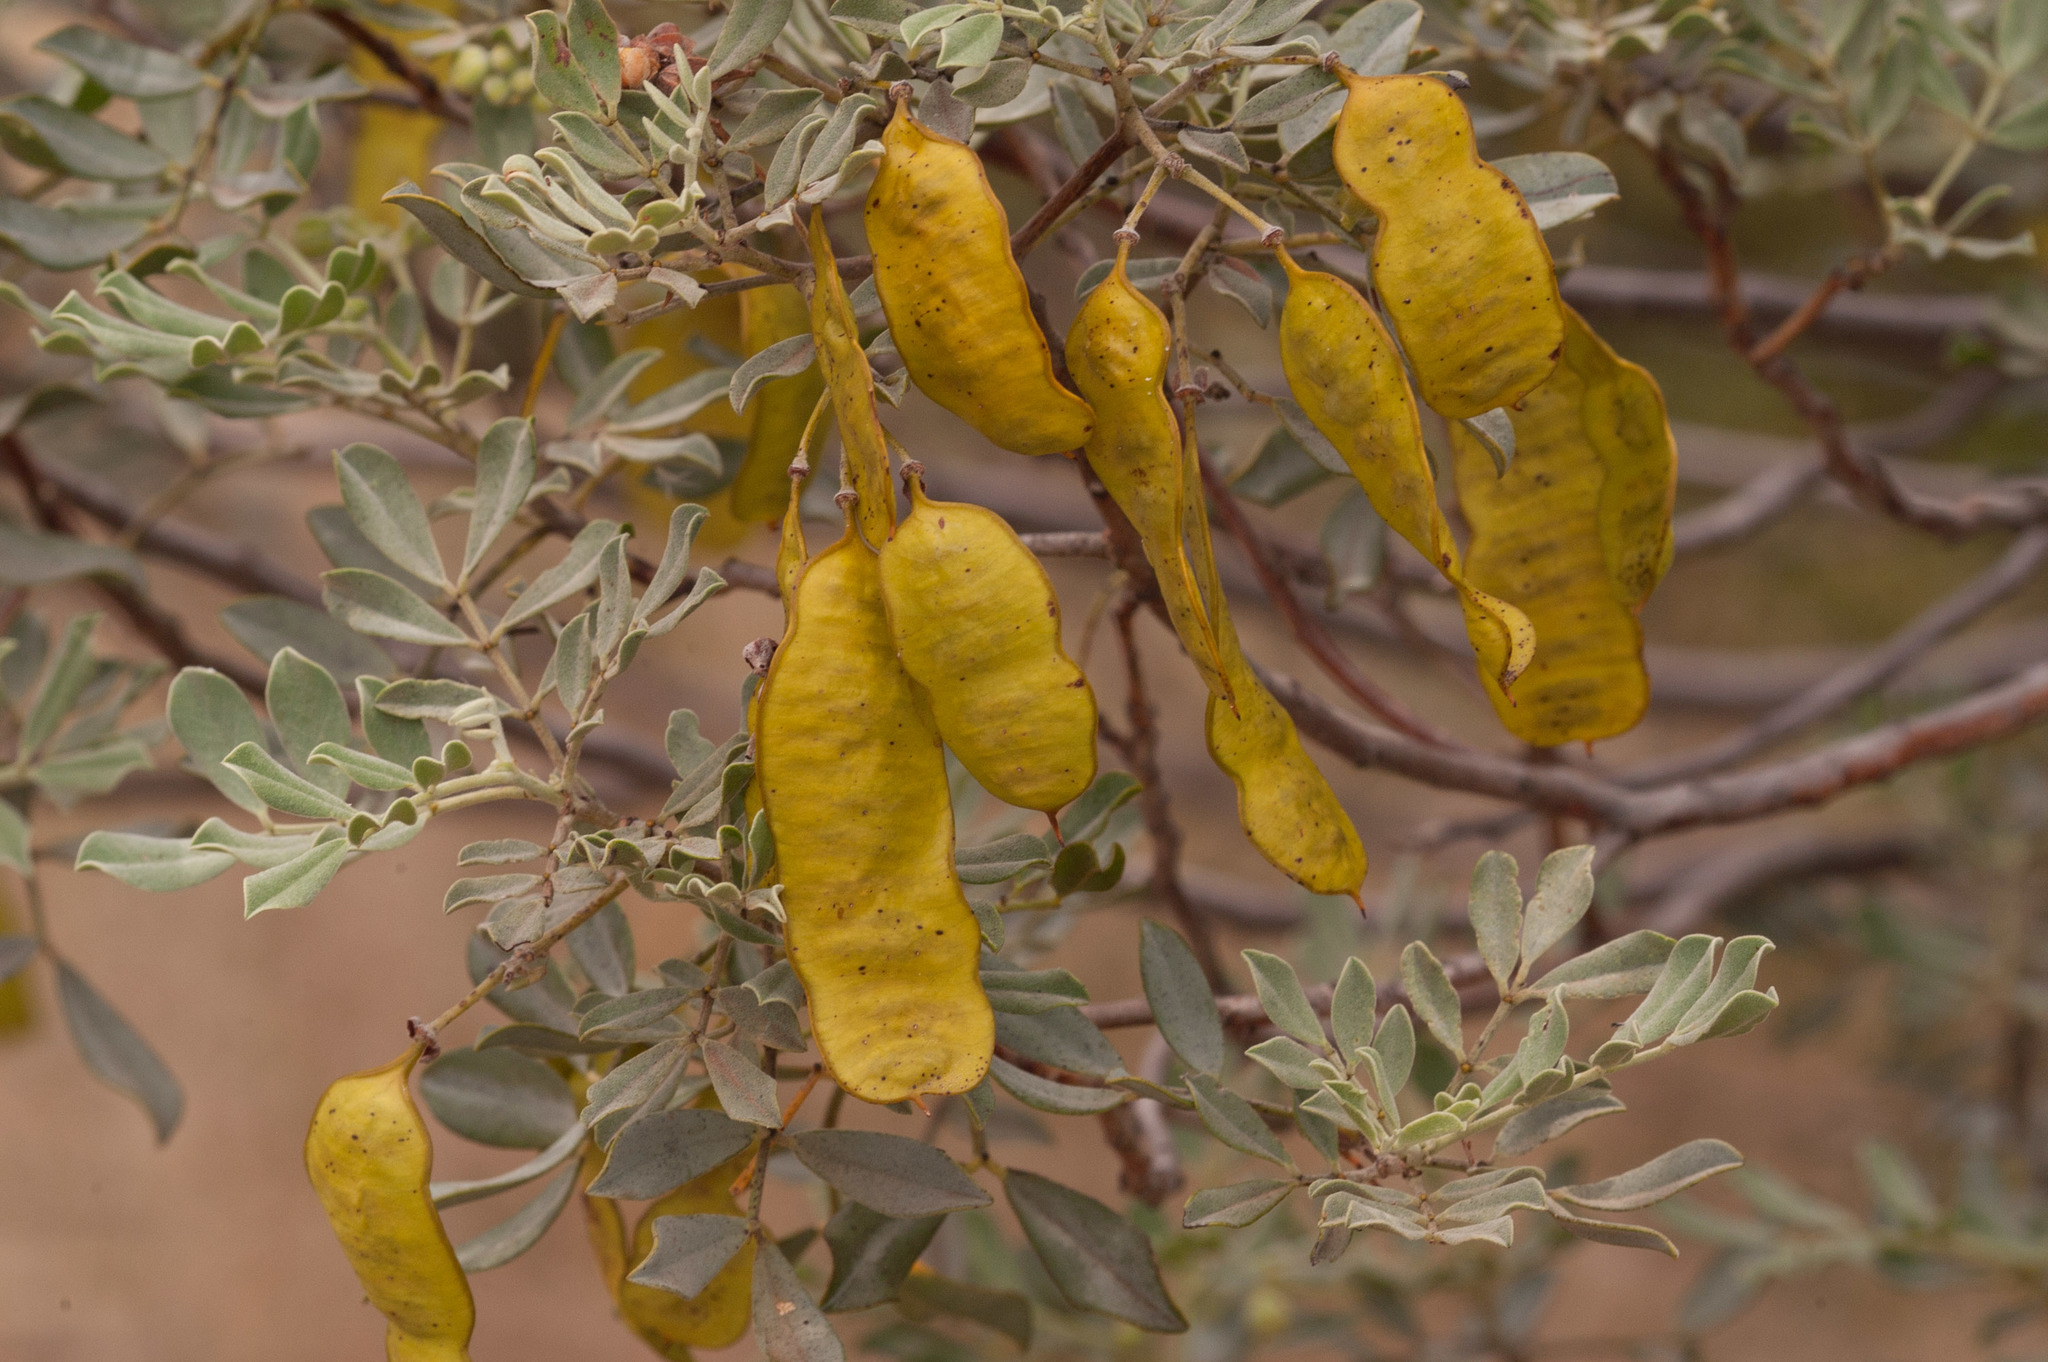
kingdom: Plantae
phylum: Tracheophyta
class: Magnoliopsida
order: Fabales
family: Fabaceae
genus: Senna
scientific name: Senna artemisioides
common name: Burnt-leaved acacia
